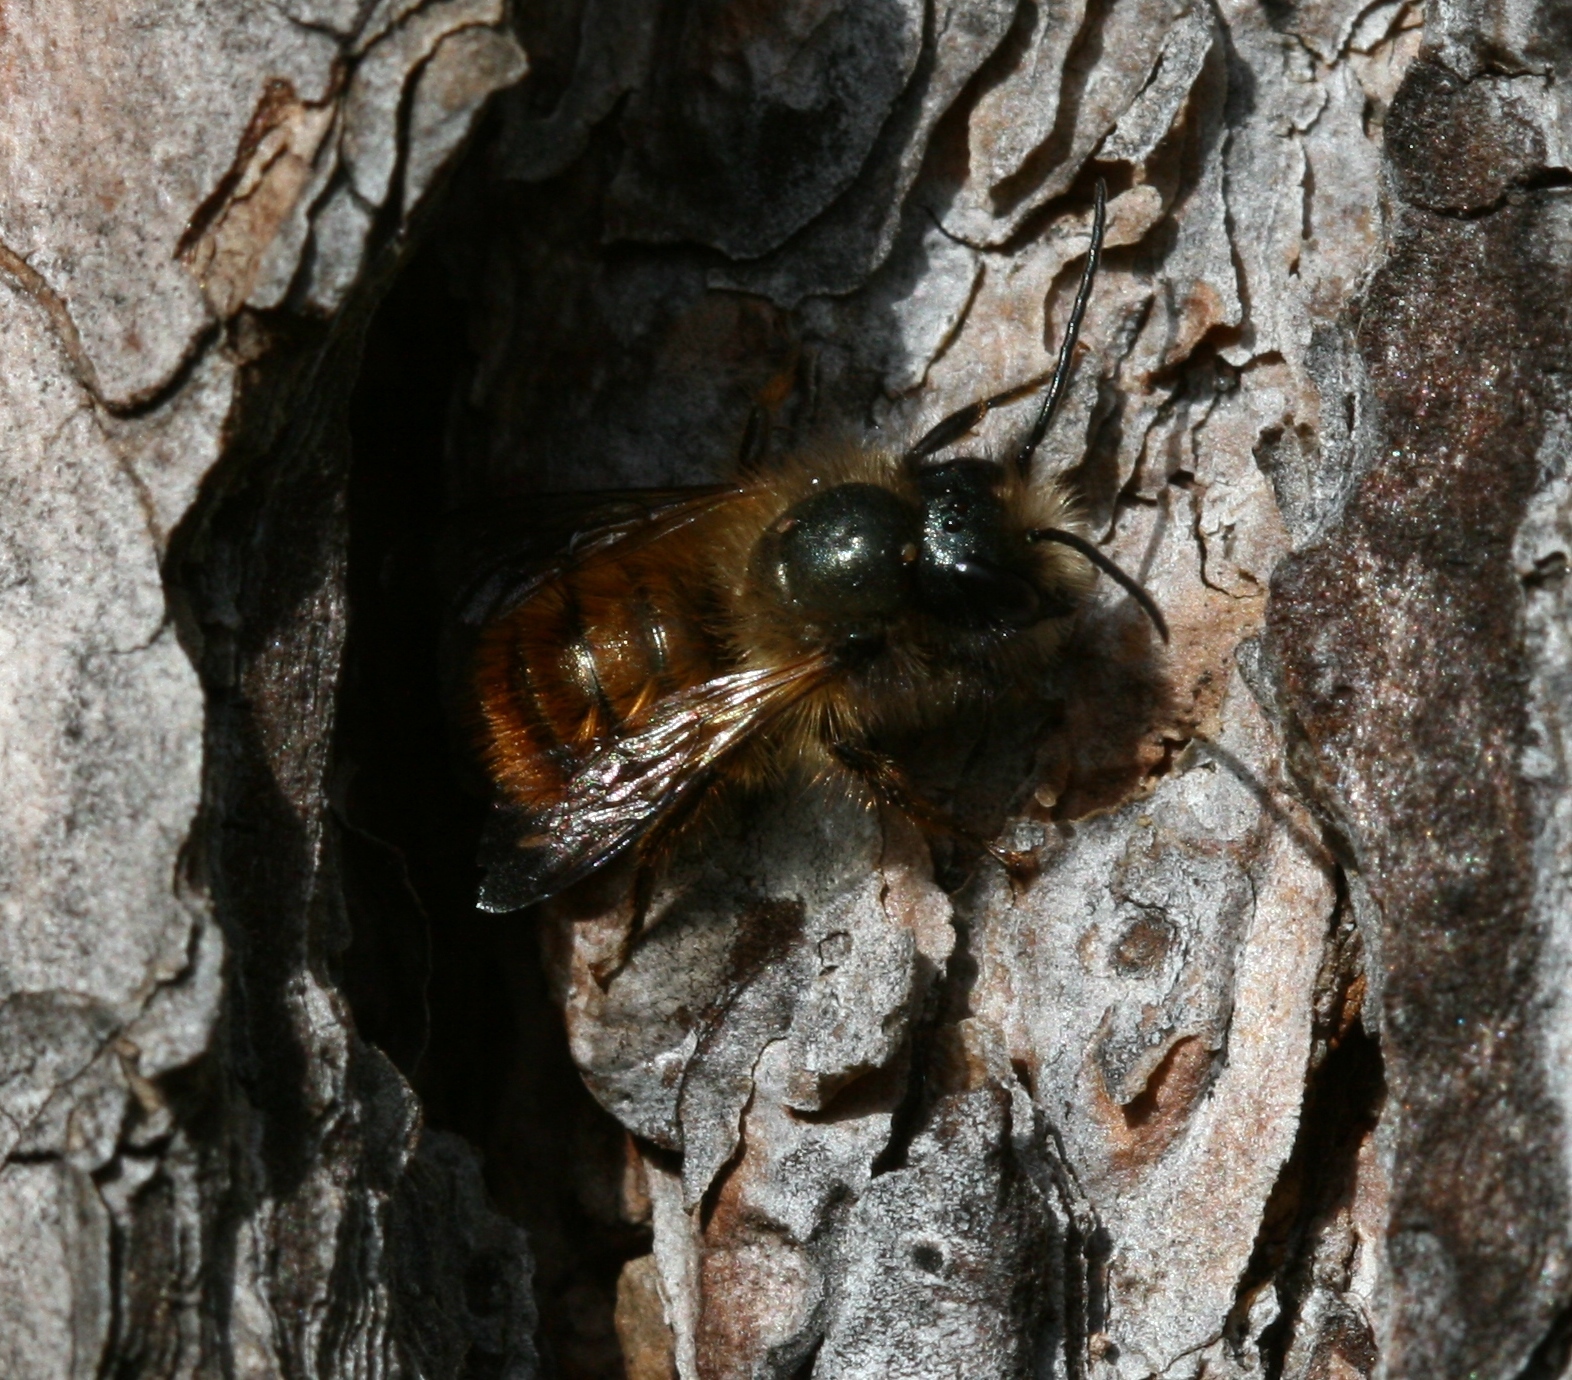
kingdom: Animalia
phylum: Arthropoda
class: Insecta
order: Hymenoptera
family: Megachilidae
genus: Osmia
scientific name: Osmia bicornis
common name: Red mason bee
